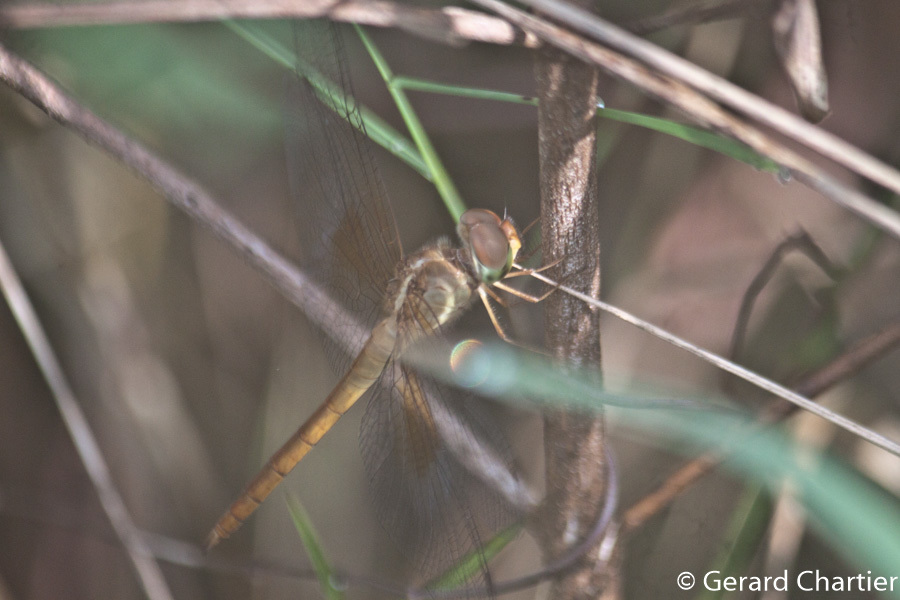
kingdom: Animalia
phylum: Arthropoda
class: Insecta
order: Odonata
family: Libellulidae
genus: Tholymis
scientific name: Tholymis tillarga
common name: Coral-tailed cloud wing
